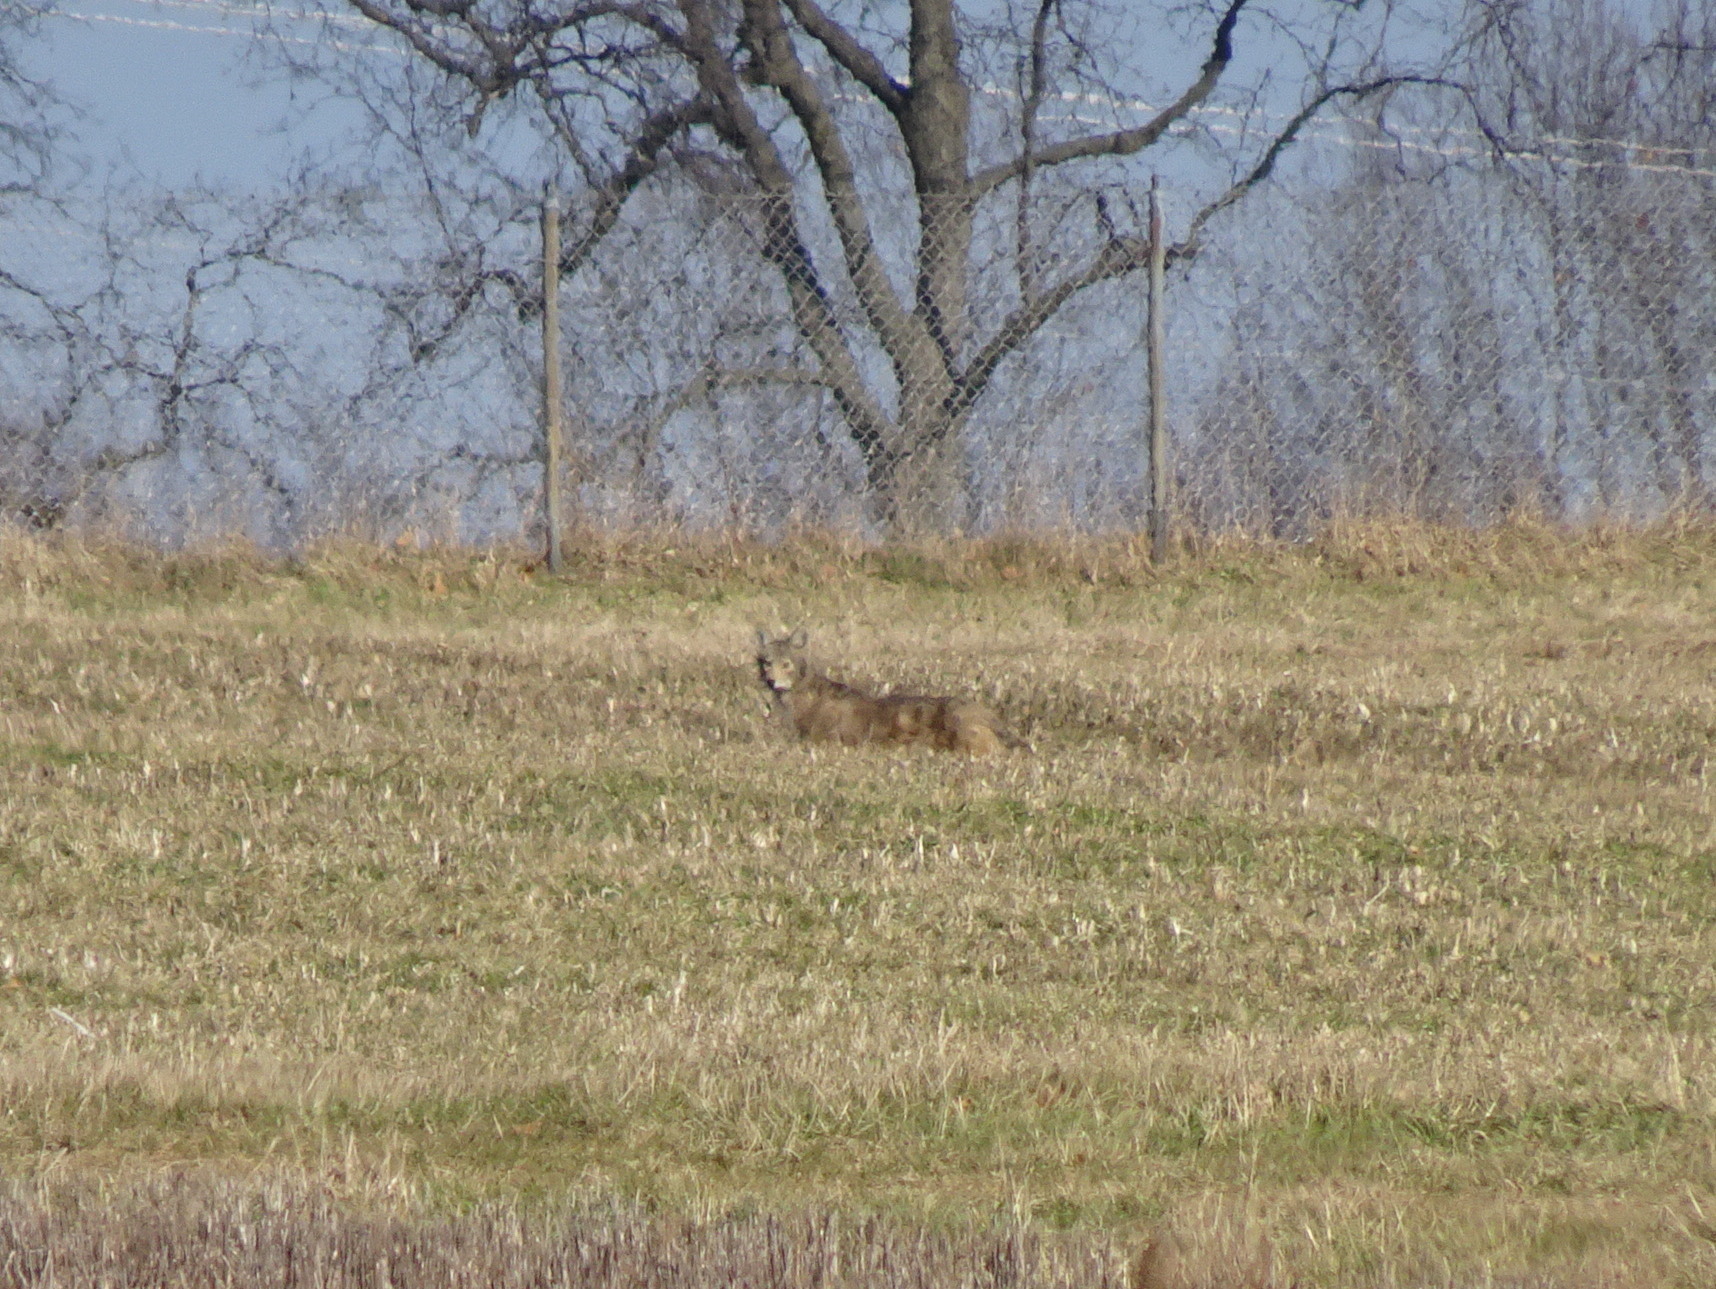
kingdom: Animalia
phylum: Chordata
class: Mammalia
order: Carnivora
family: Canidae
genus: Canis
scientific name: Canis latrans
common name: Coyote
